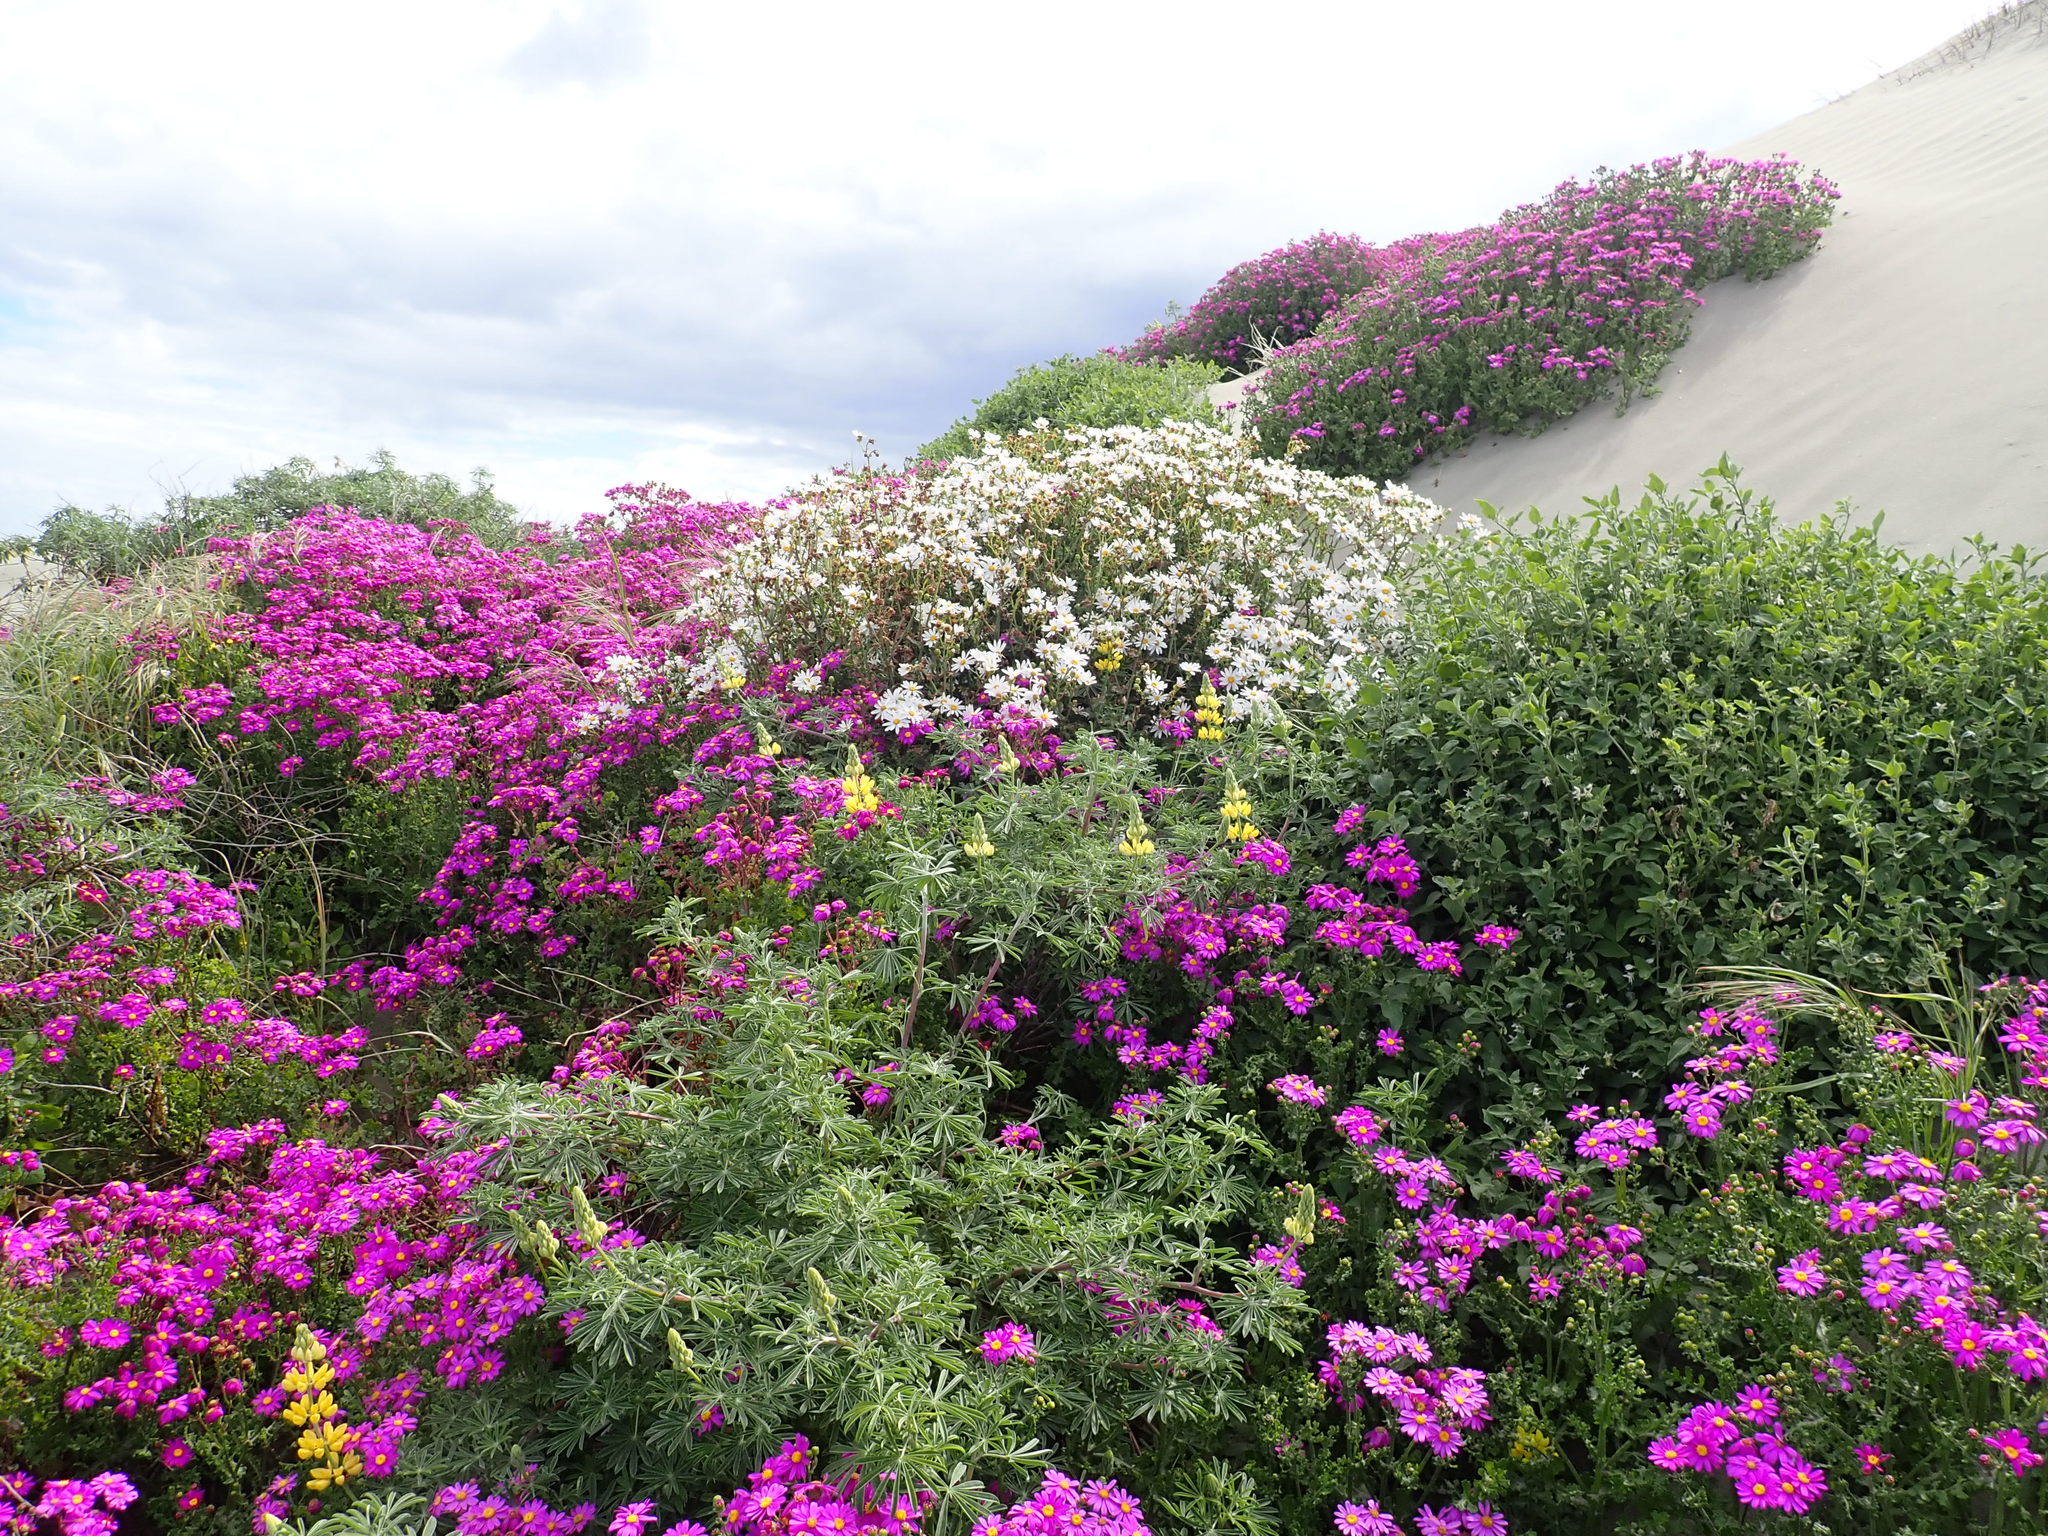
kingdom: Plantae
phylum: Tracheophyta
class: Magnoliopsida
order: Asterales
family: Asteraceae
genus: Senecio
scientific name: Senecio glastifolius
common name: Woad-leaved ragwort
